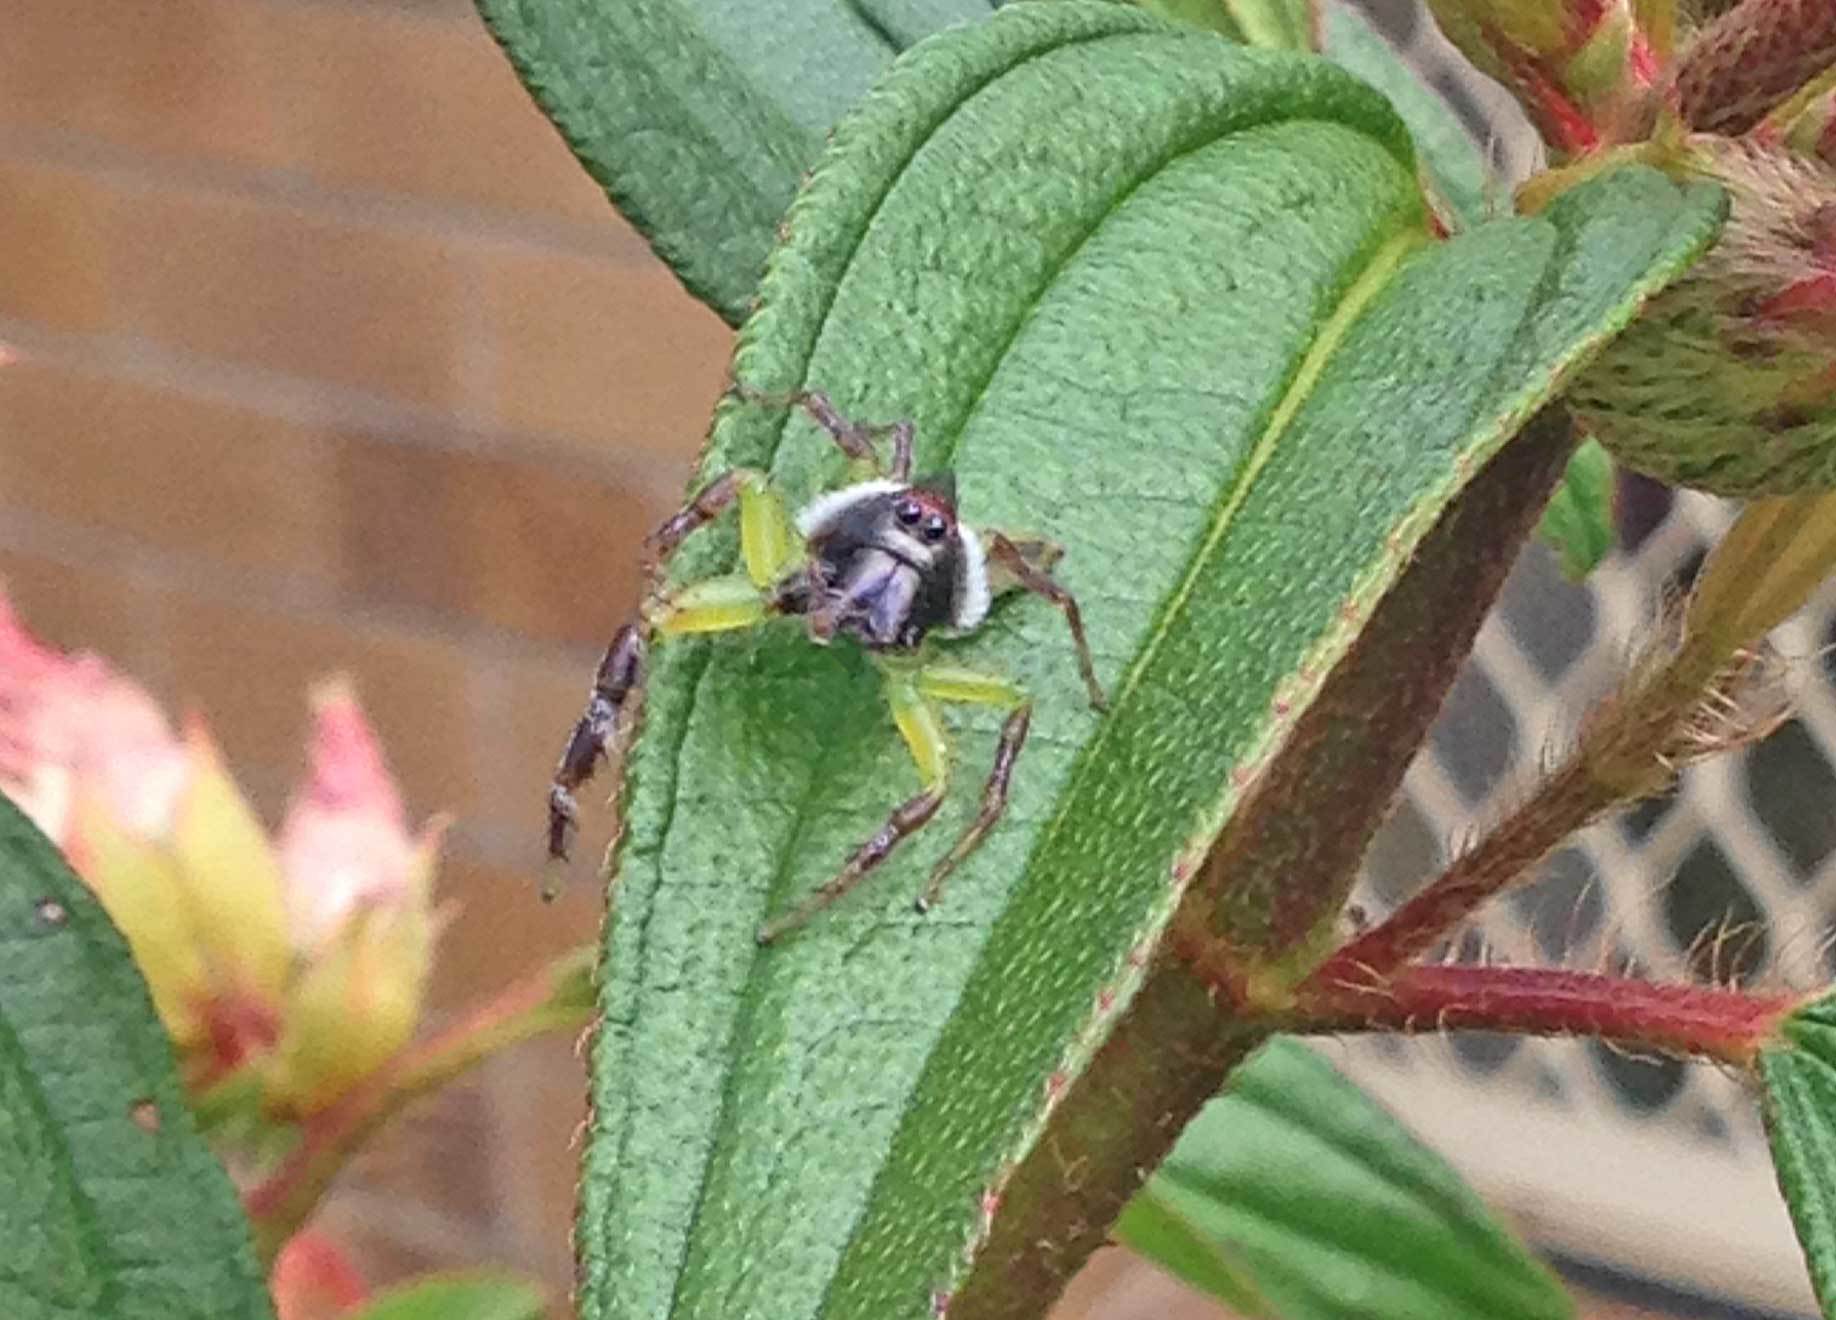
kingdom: Animalia
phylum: Arthropoda
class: Arachnida
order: Araneae
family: Salticidae
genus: Mopsus
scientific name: Mopsus mormon
